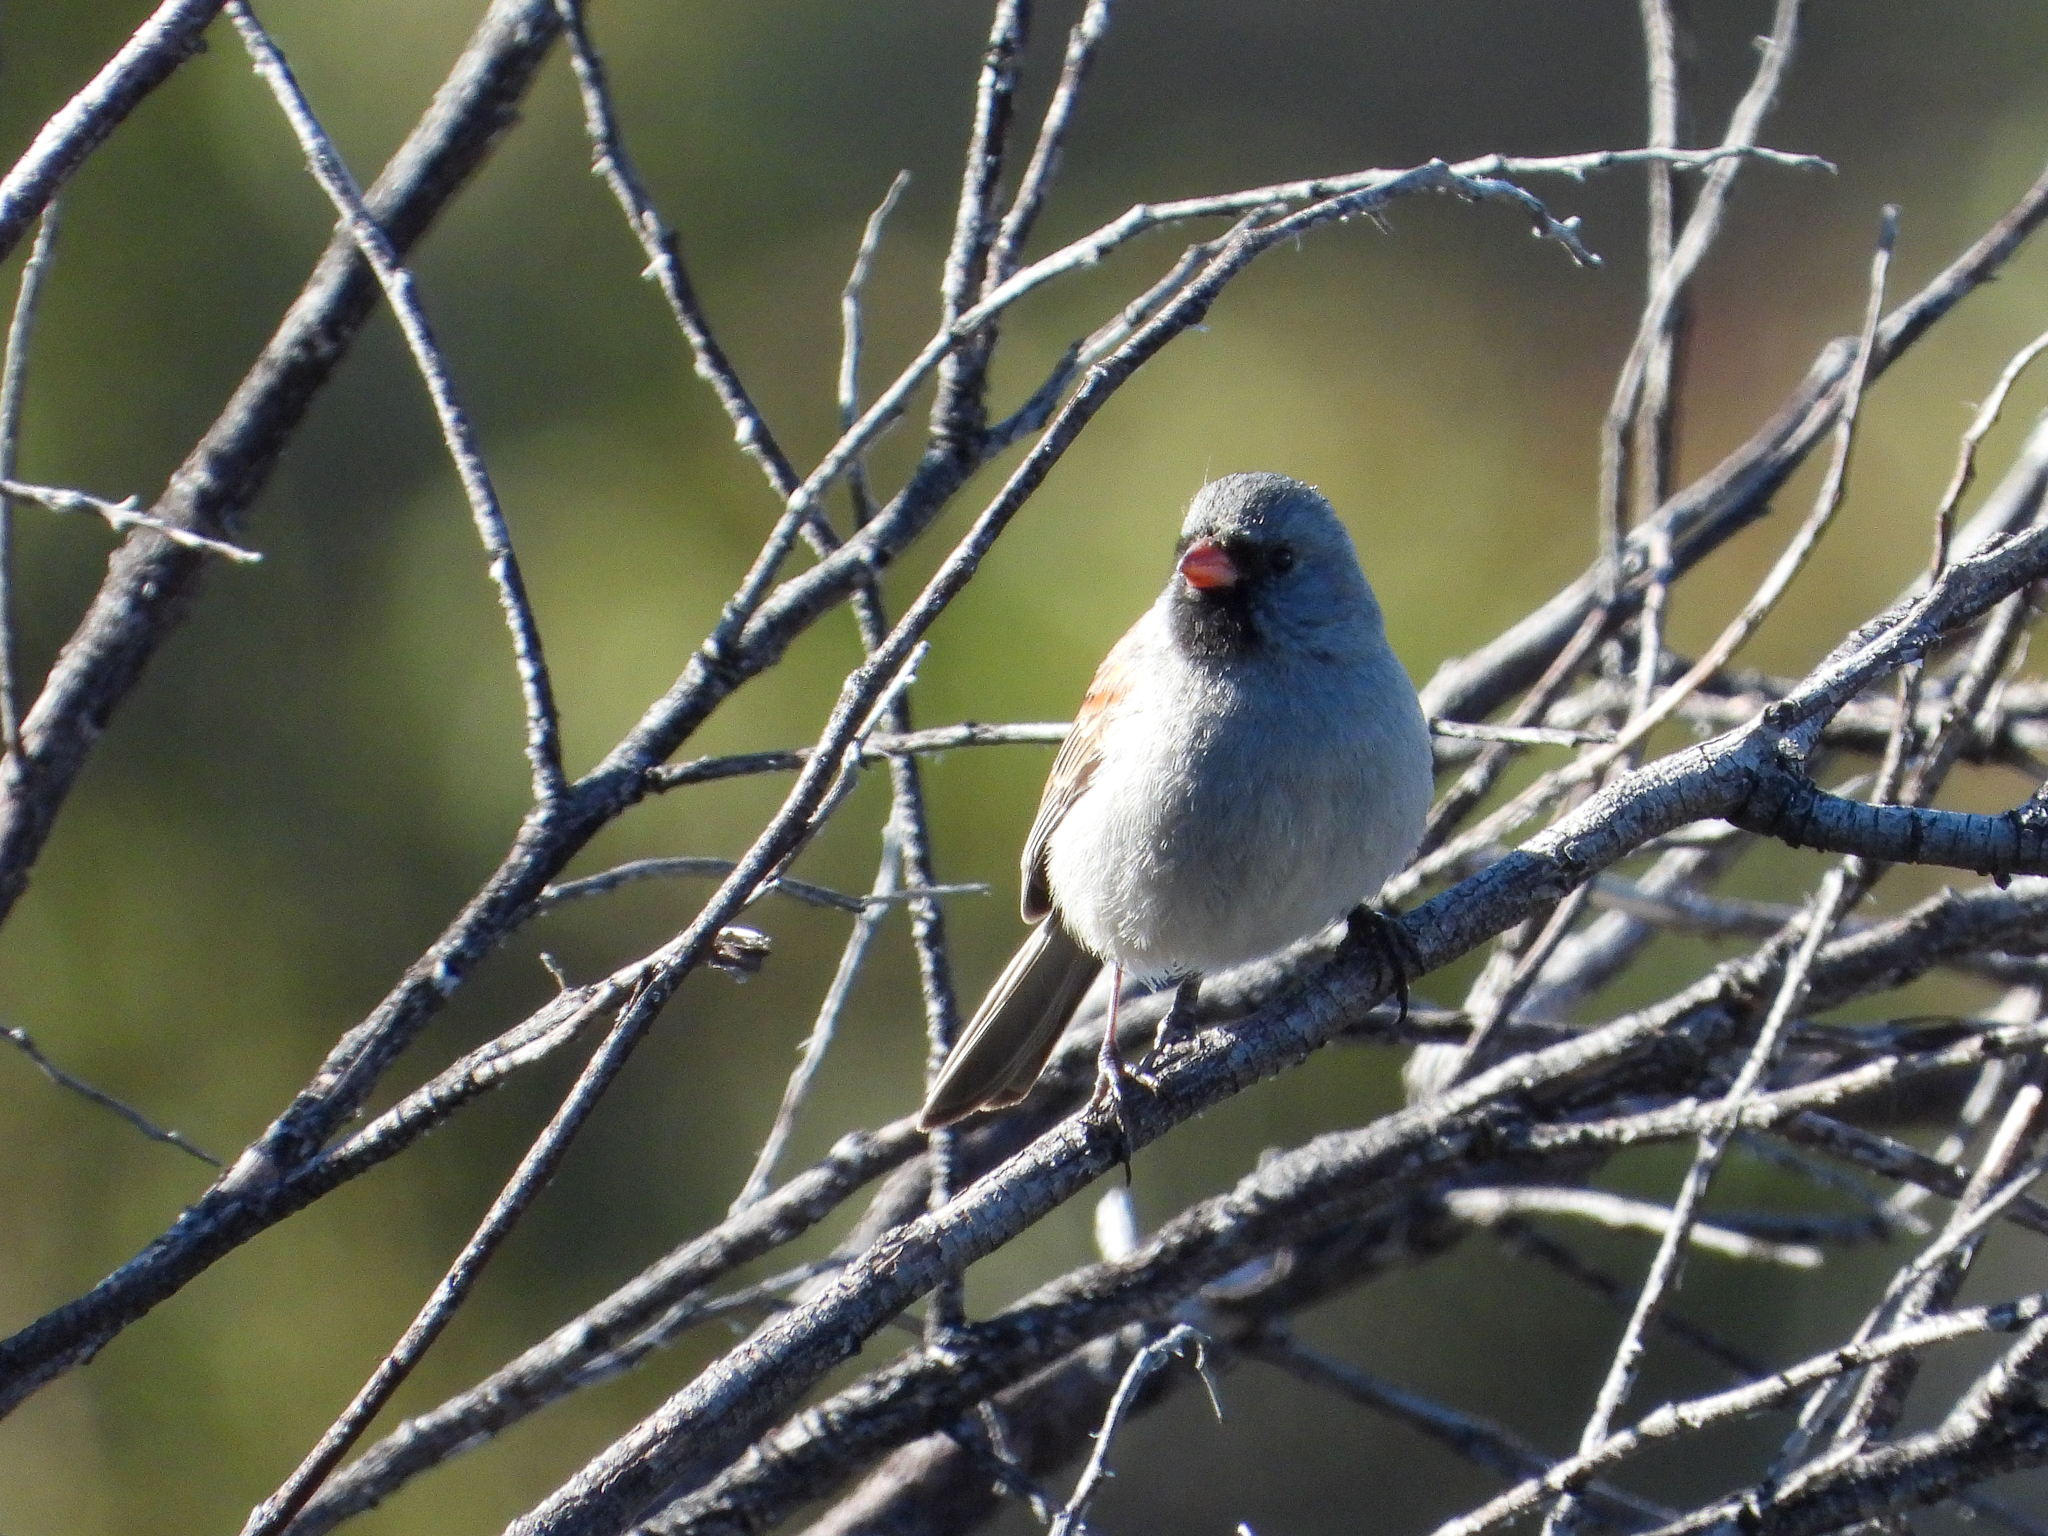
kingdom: Animalia
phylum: Chordata
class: Aves
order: Passeriformes
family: Passerellidae
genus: Spizella
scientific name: Spizella atrogularis
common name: Black-chinned sparrow
